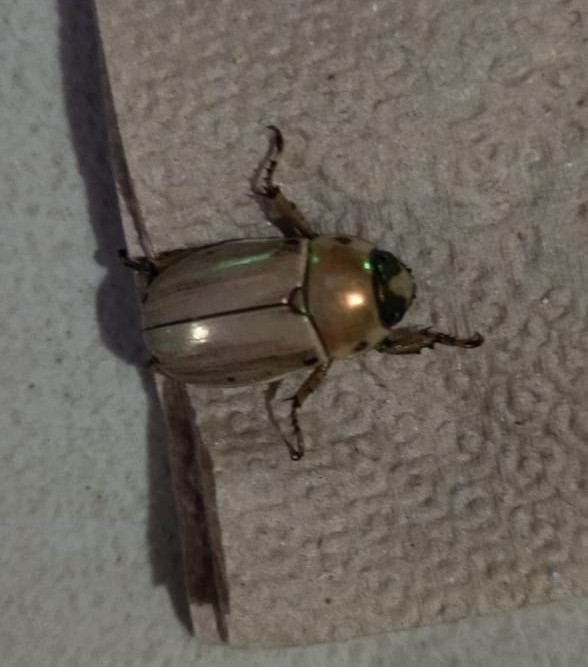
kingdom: Animalia
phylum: Arthropoda
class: Insecta
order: Coleoptera
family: Scarabaeidae
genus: Pelidnota
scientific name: Pelidnota notata
